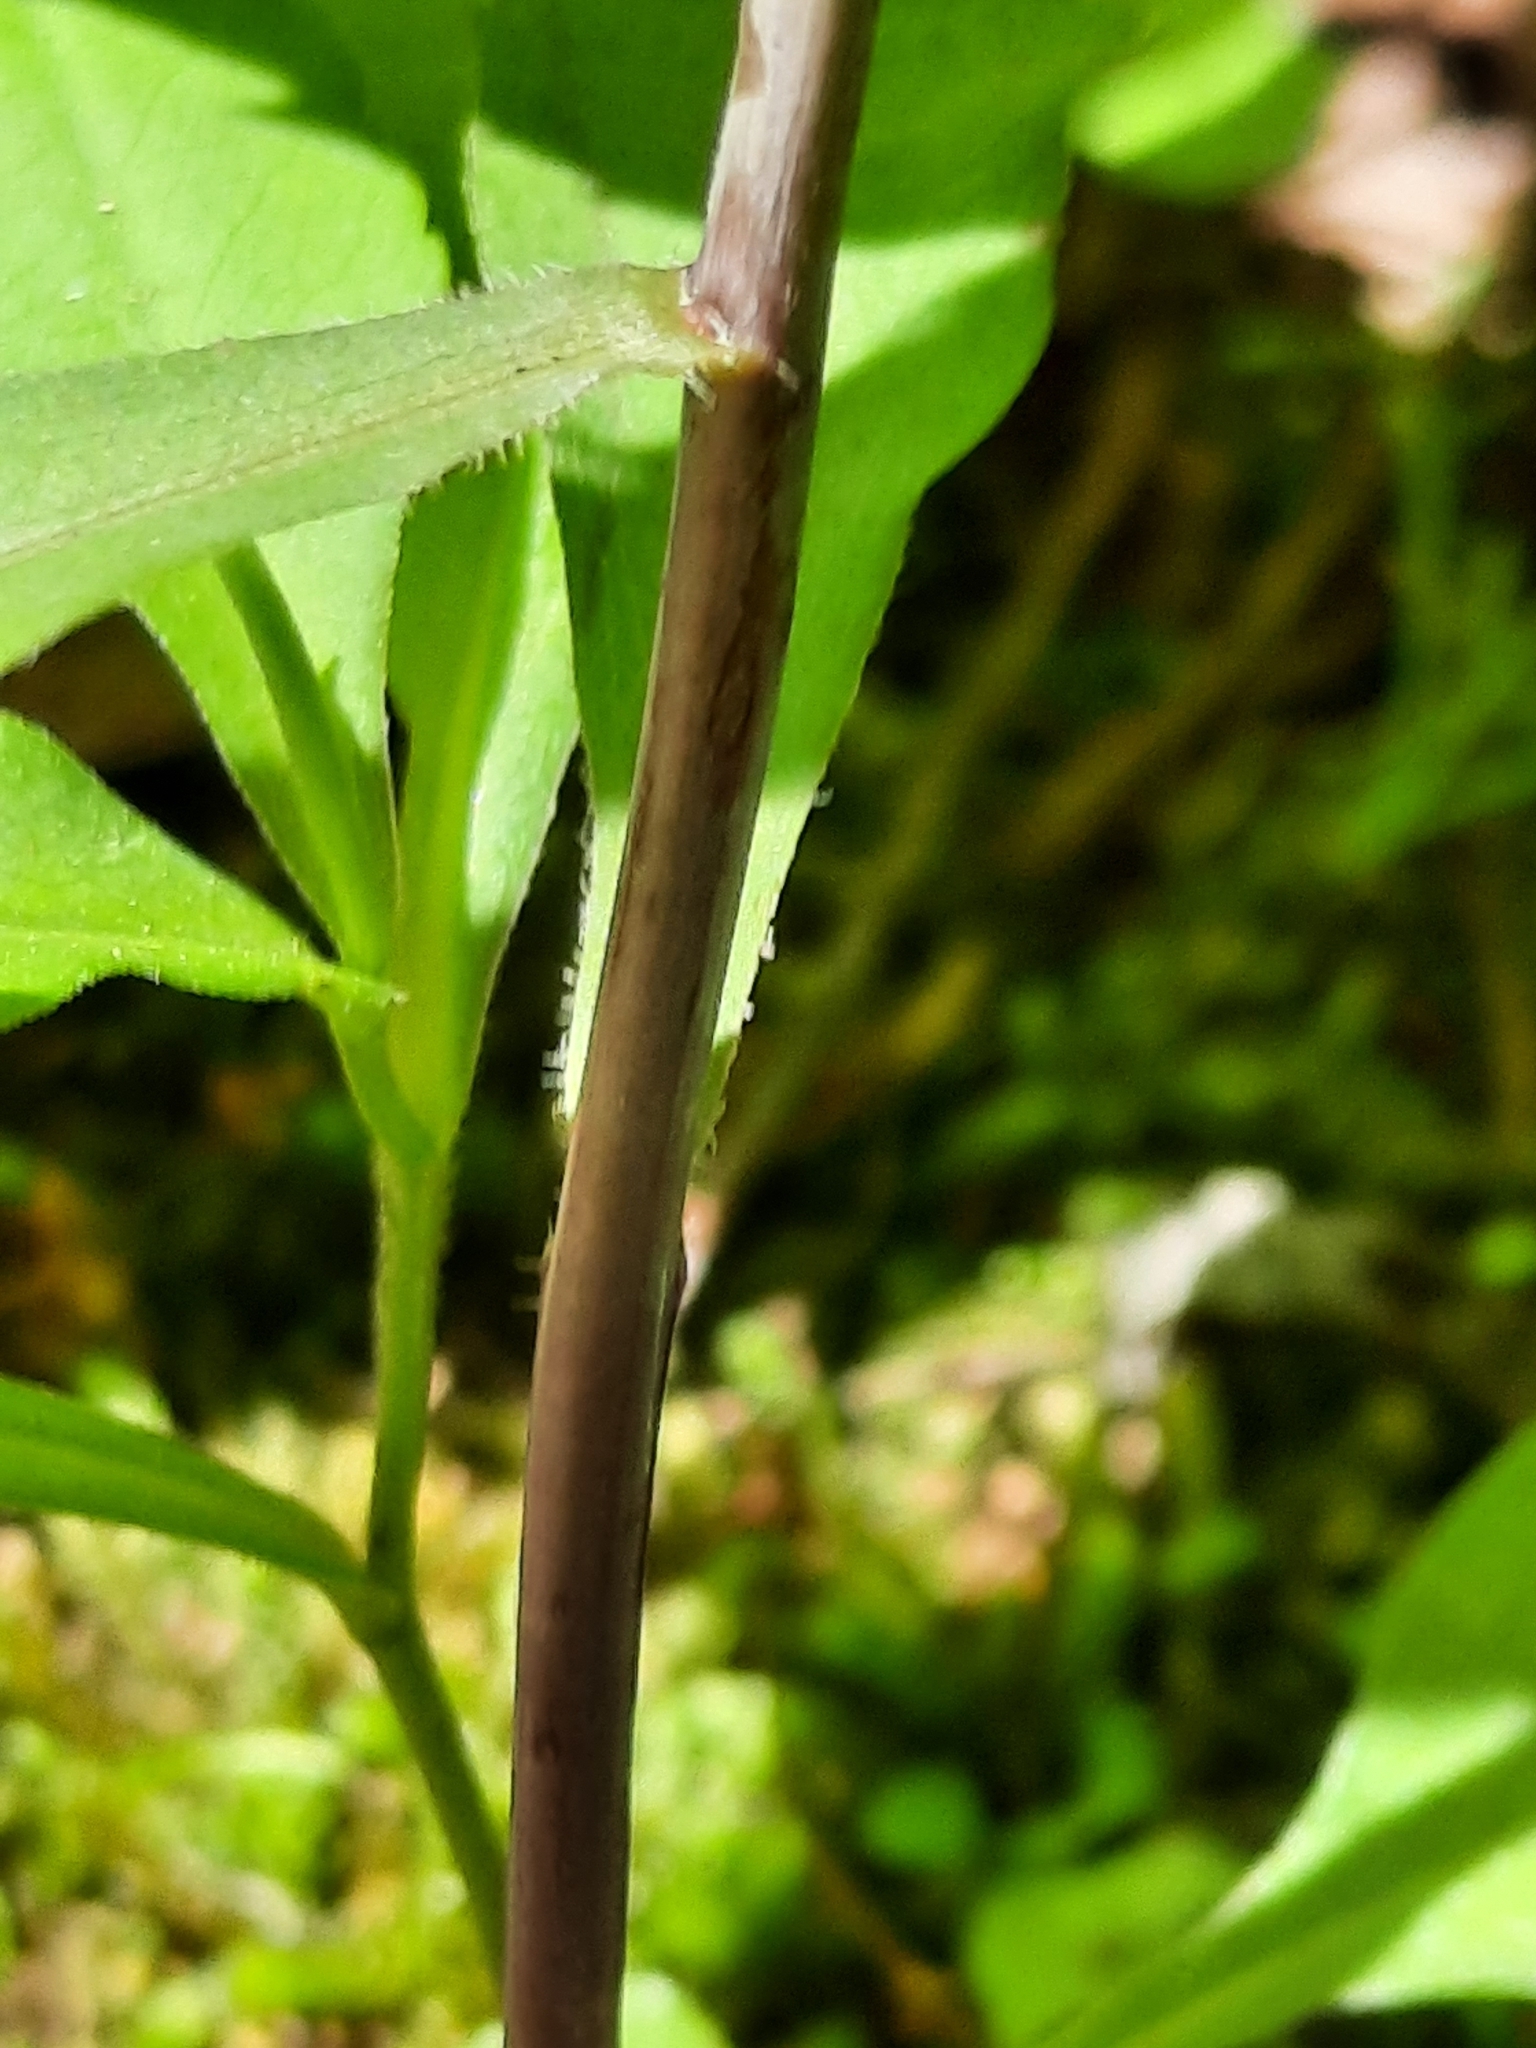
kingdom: Plantae
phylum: Tracheophyta
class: Magnoliopsida
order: Asterales
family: Asteraceae
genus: Solidago
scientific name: Solidago caesia
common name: Woodland goldenrod
